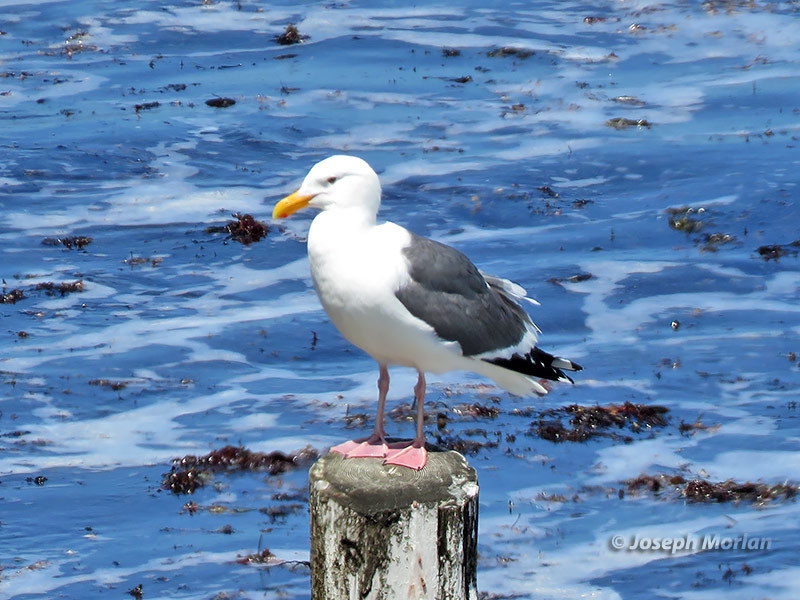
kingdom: Animalia
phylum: Chordata
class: Aves
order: Charadriiformes
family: Laridae
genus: Larus
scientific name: Larus occidentalis
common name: Western gull
